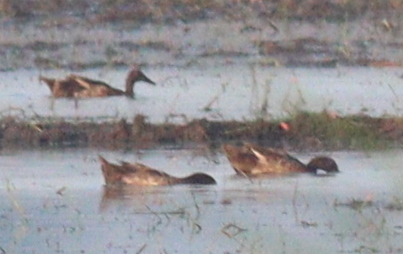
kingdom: Animalia
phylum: Chordata
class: Aves
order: Anseriformes
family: Anatidae
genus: Anas
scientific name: Anas platyrhynchos
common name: Mallard
